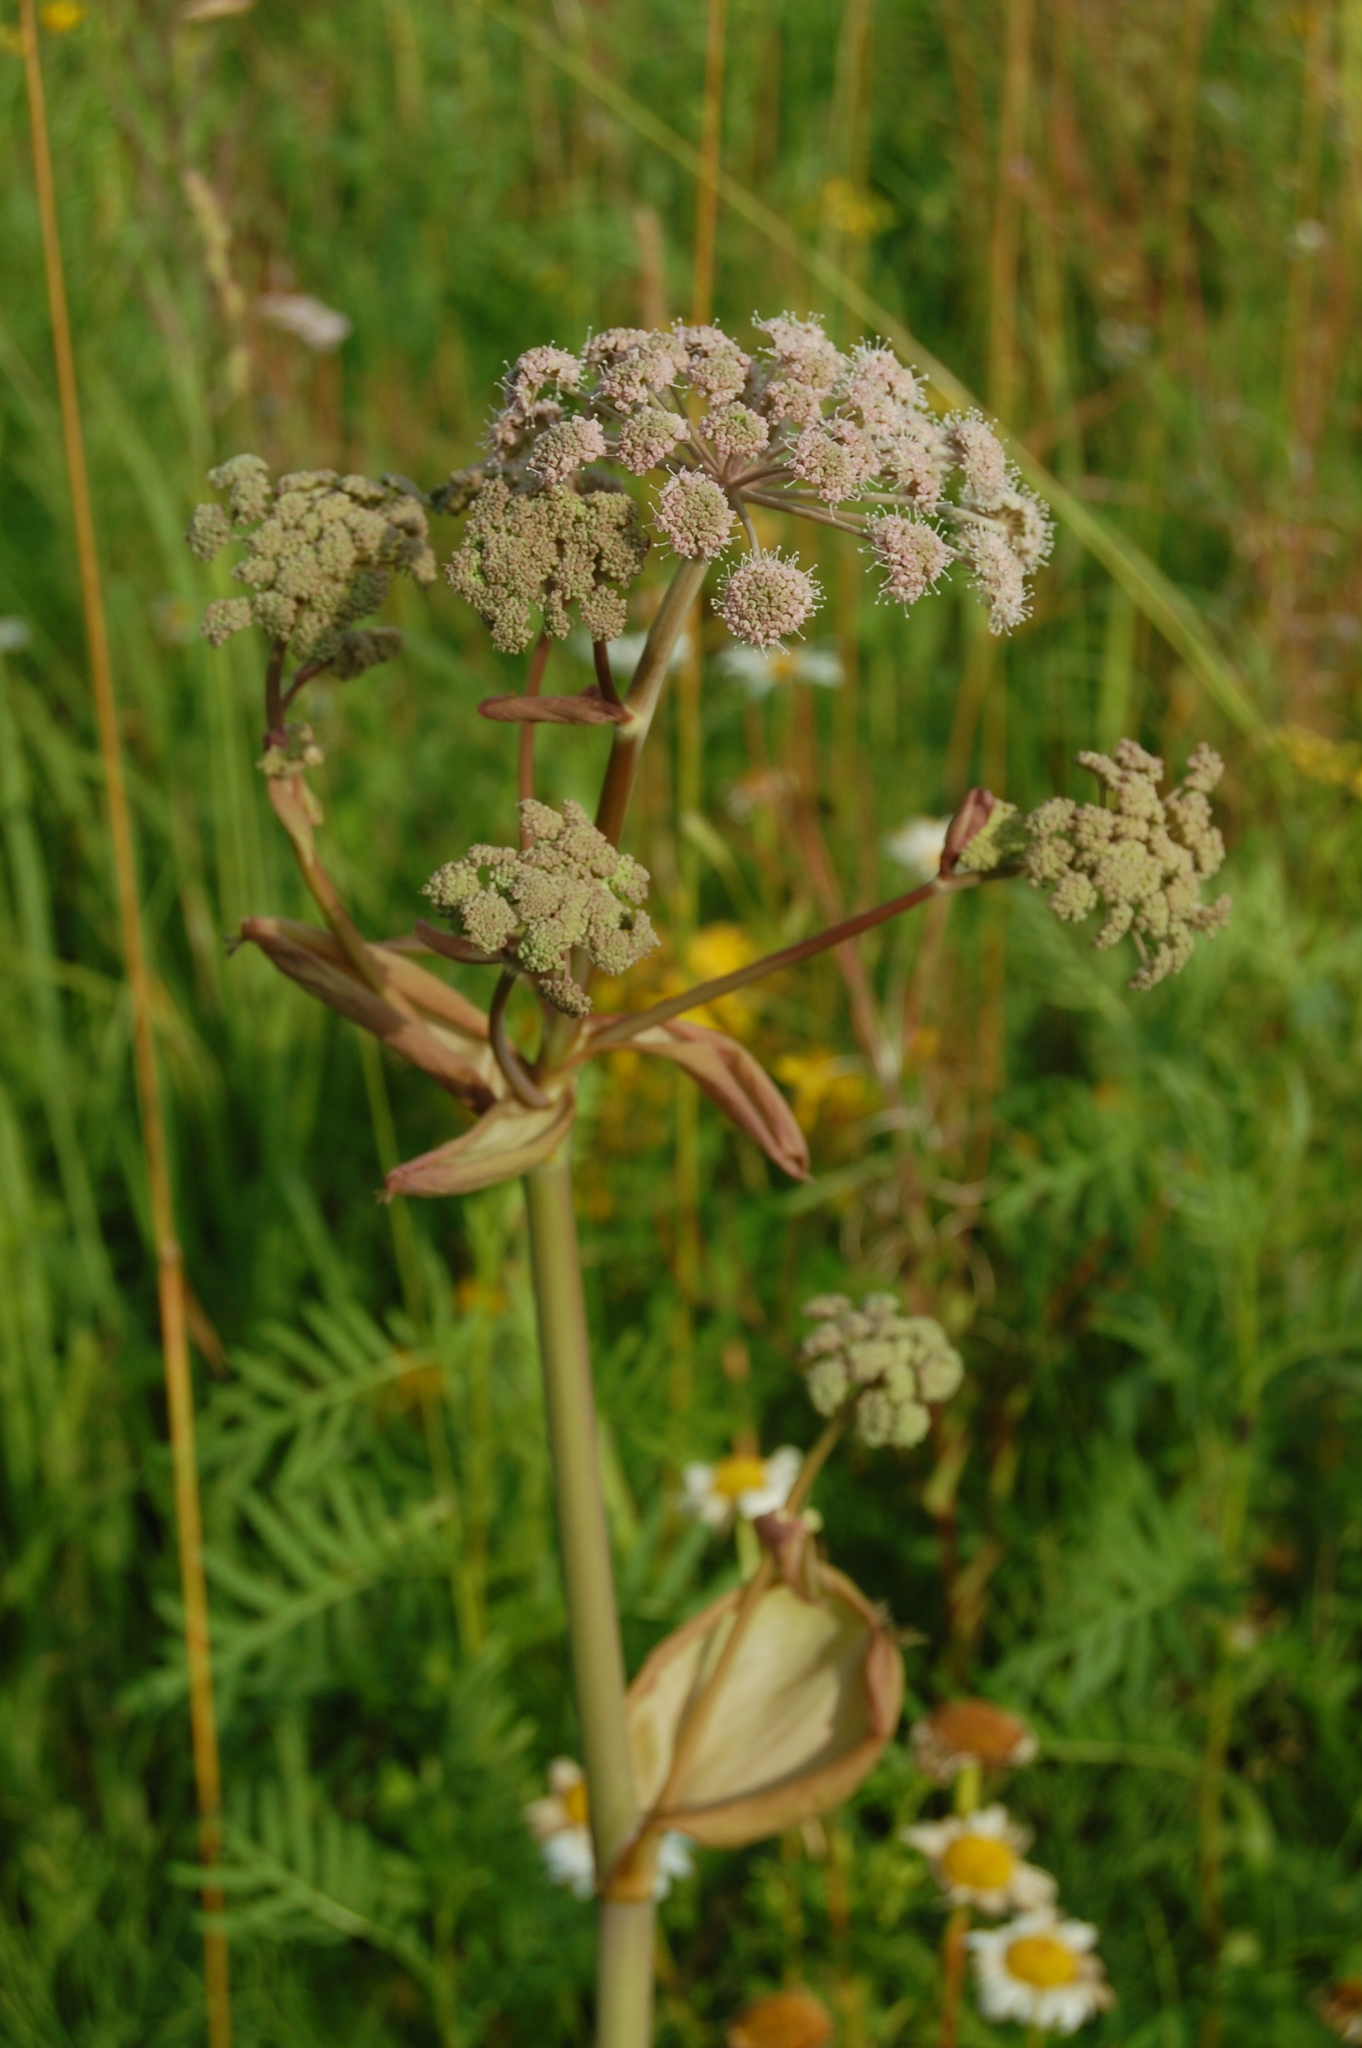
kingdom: Plantae
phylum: Tracheophyta
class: Magnoliopsida
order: Apiales
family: Apiaceae
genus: Angelica
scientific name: Angelica sylvestris
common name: Wild angelica
